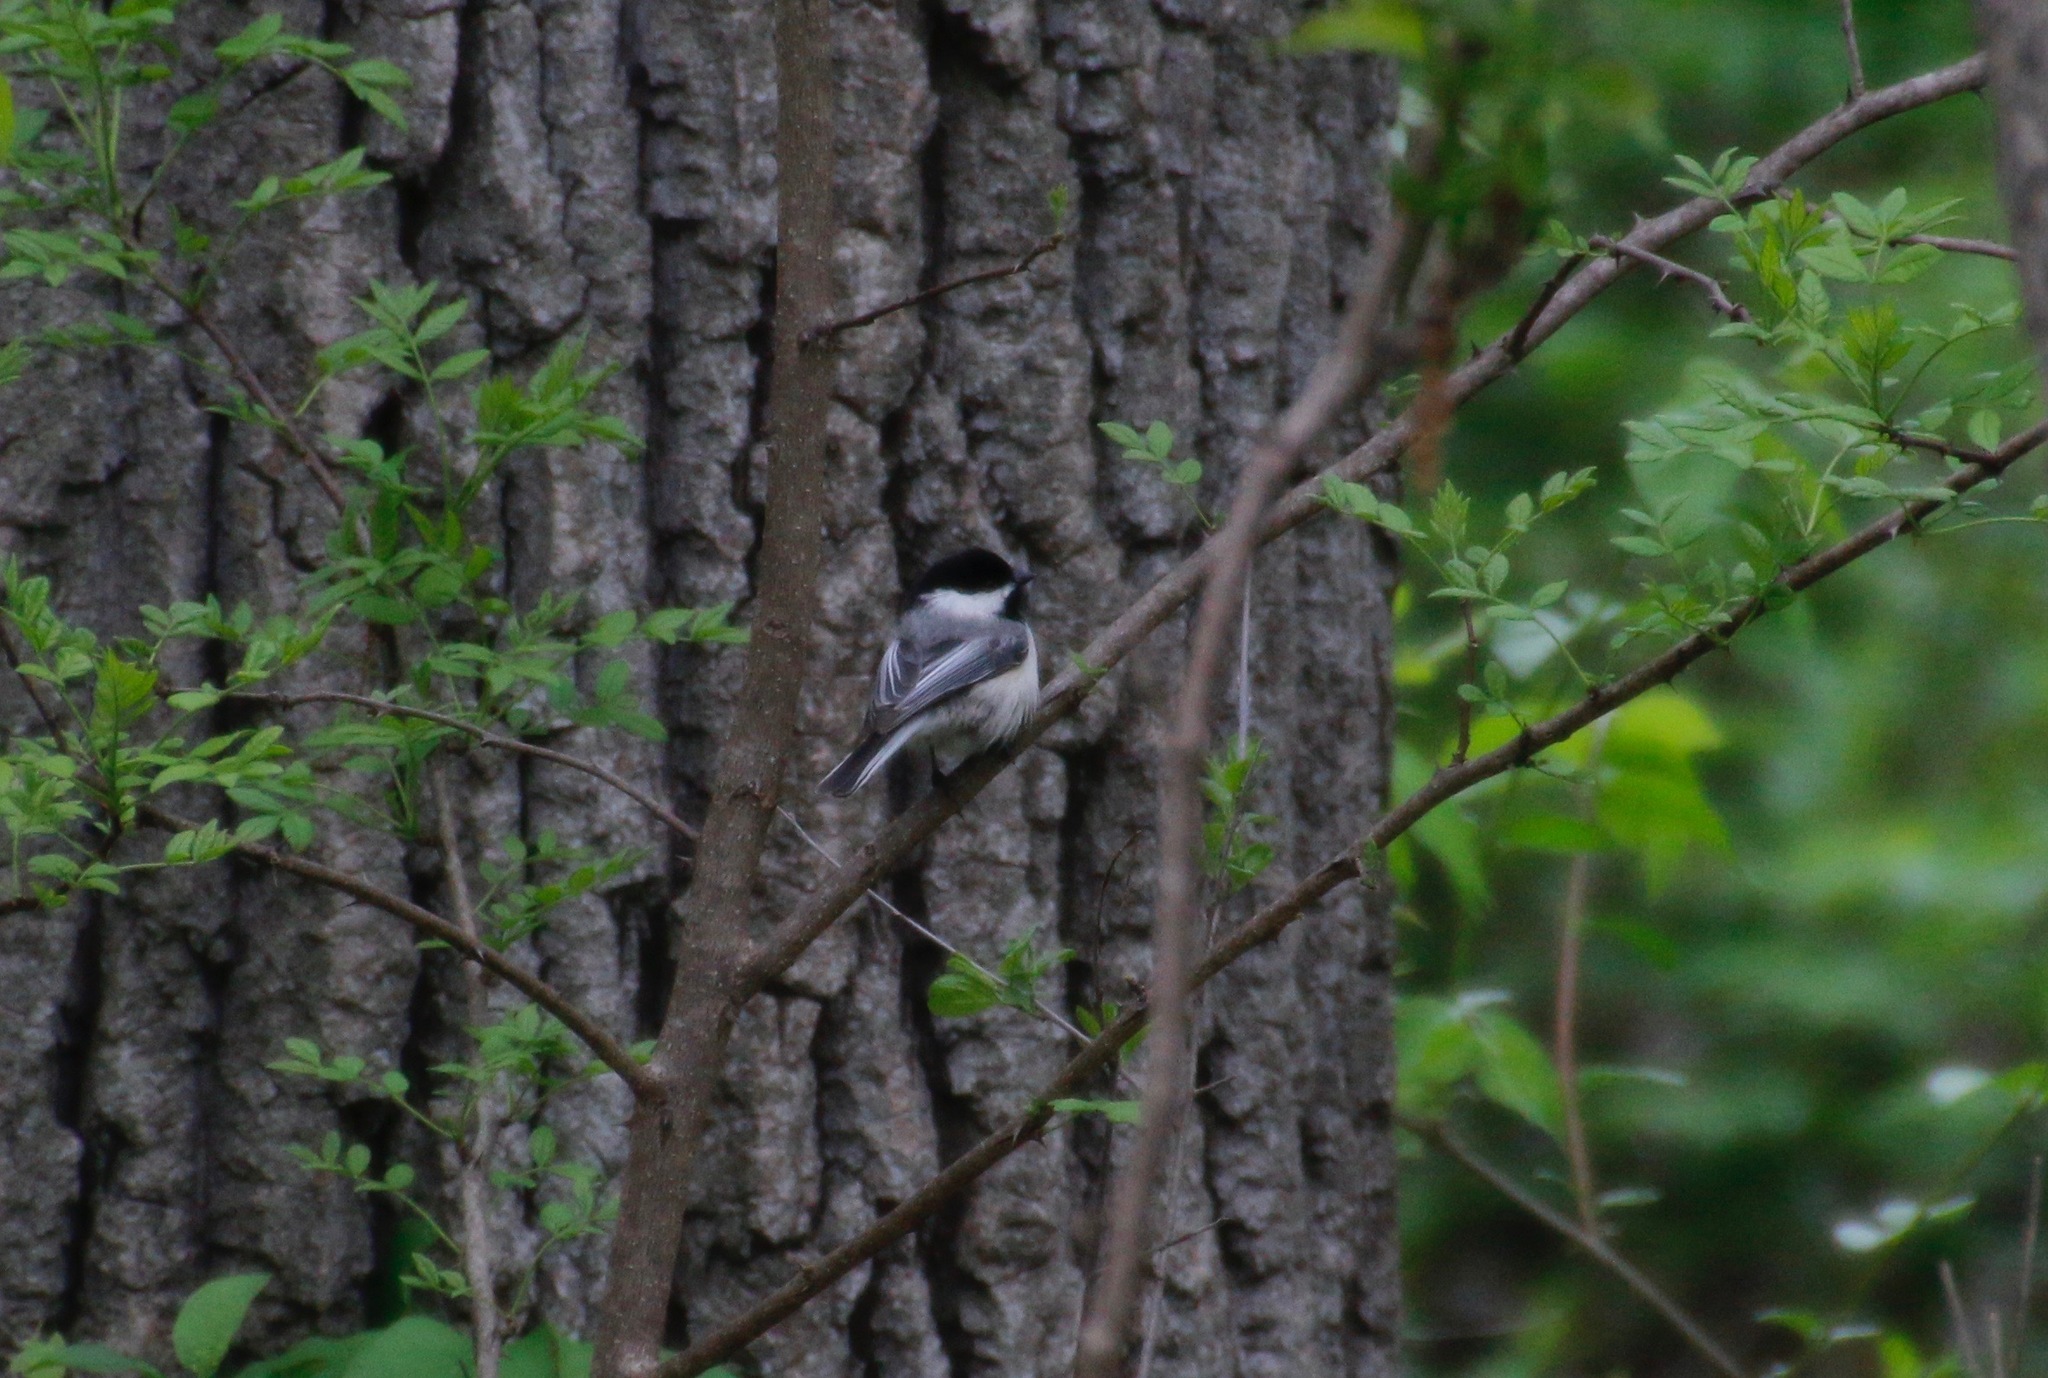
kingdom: Animalia
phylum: Chordata
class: Aves
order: Passeriformes
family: Paridae
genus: Poecile
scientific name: Poecile atricapillus
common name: Black-capped chickadee
